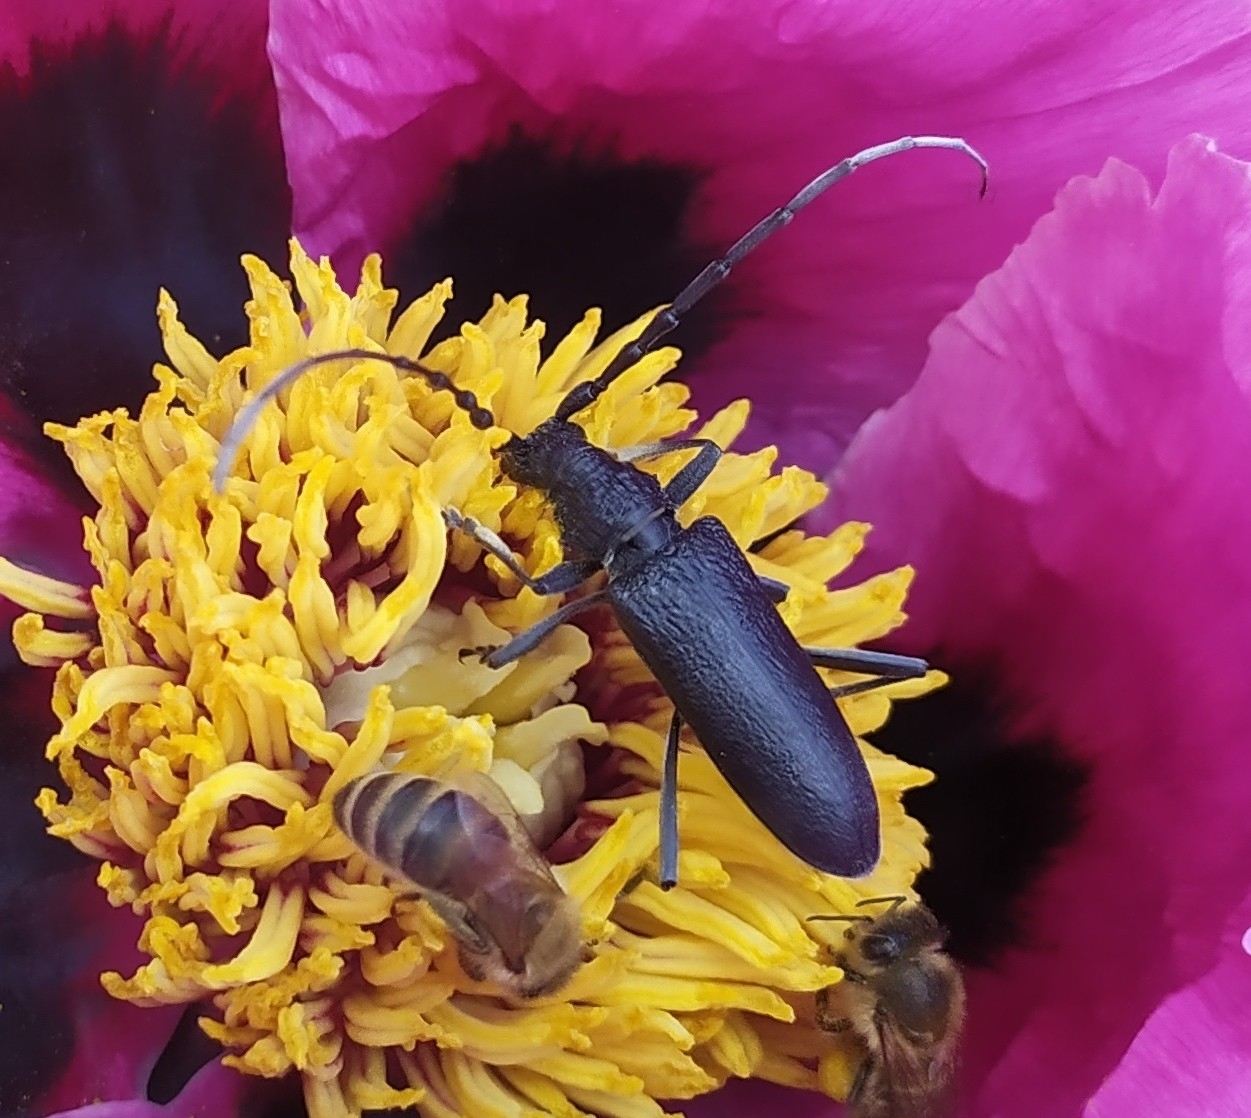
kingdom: Animalia
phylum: Arthropoda
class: Insecta
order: Coleoptera
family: Cerambycidae
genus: Cerambyx
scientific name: Cerambyx scopolii
